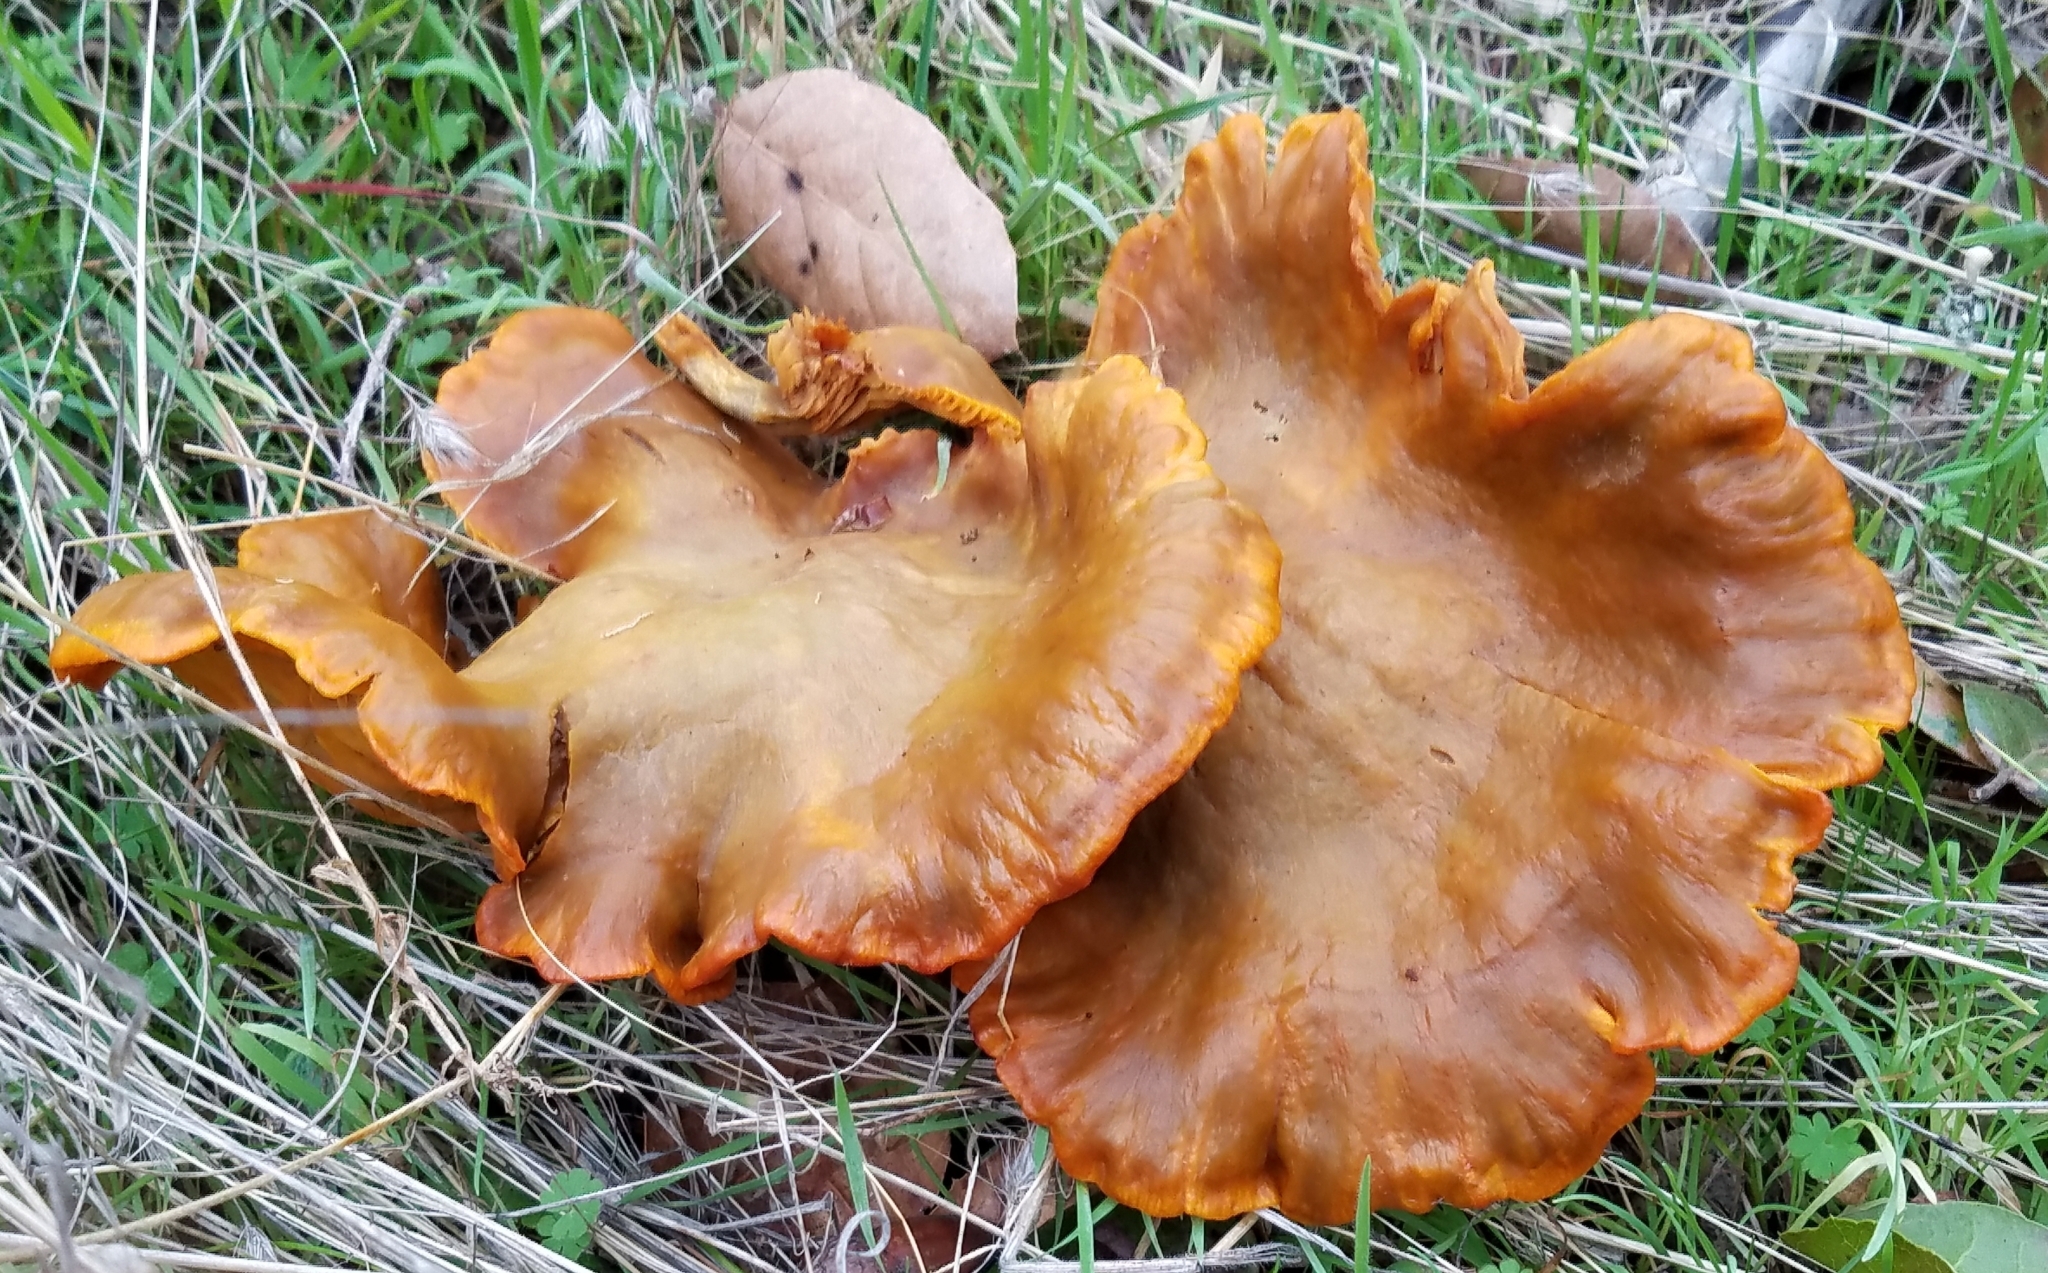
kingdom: Fungi
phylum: Basidiomycota
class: Agaricomycetes
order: Agaricales
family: Omphalotaceae
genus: Omphalotus
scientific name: Omphalotus olivascens
